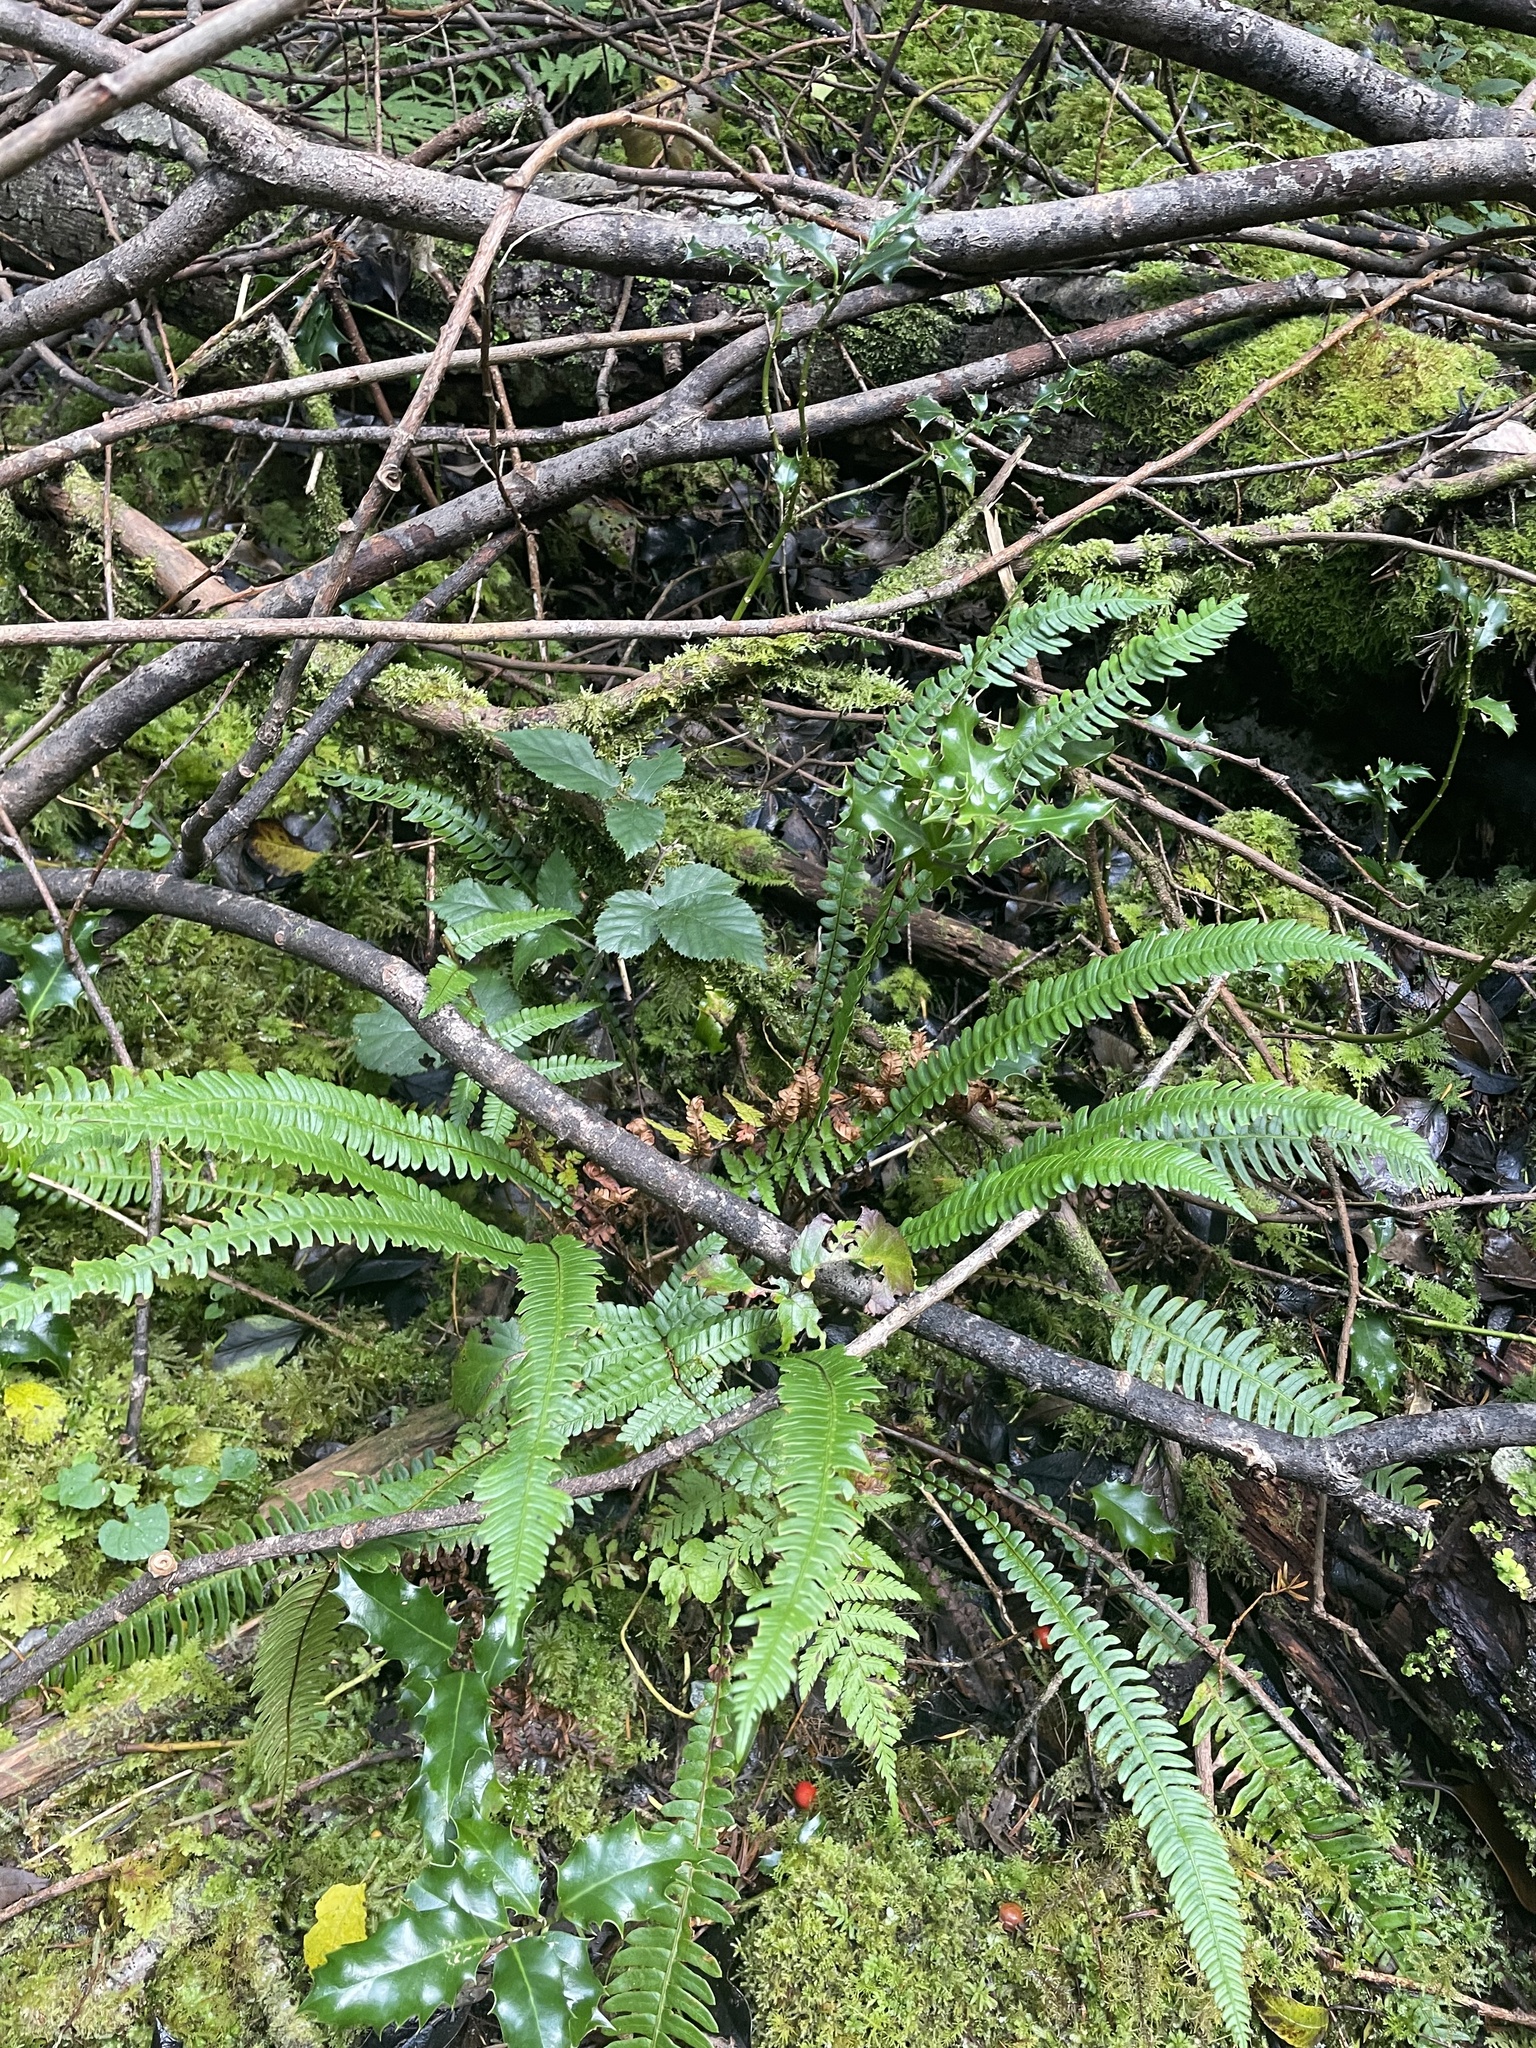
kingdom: Plantae
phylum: Tracheophyta
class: Polypodiopsida
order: Polypodiales
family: Blechnaceae
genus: Struthiopteris
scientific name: Struthiopteris spicant
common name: Deer fern
